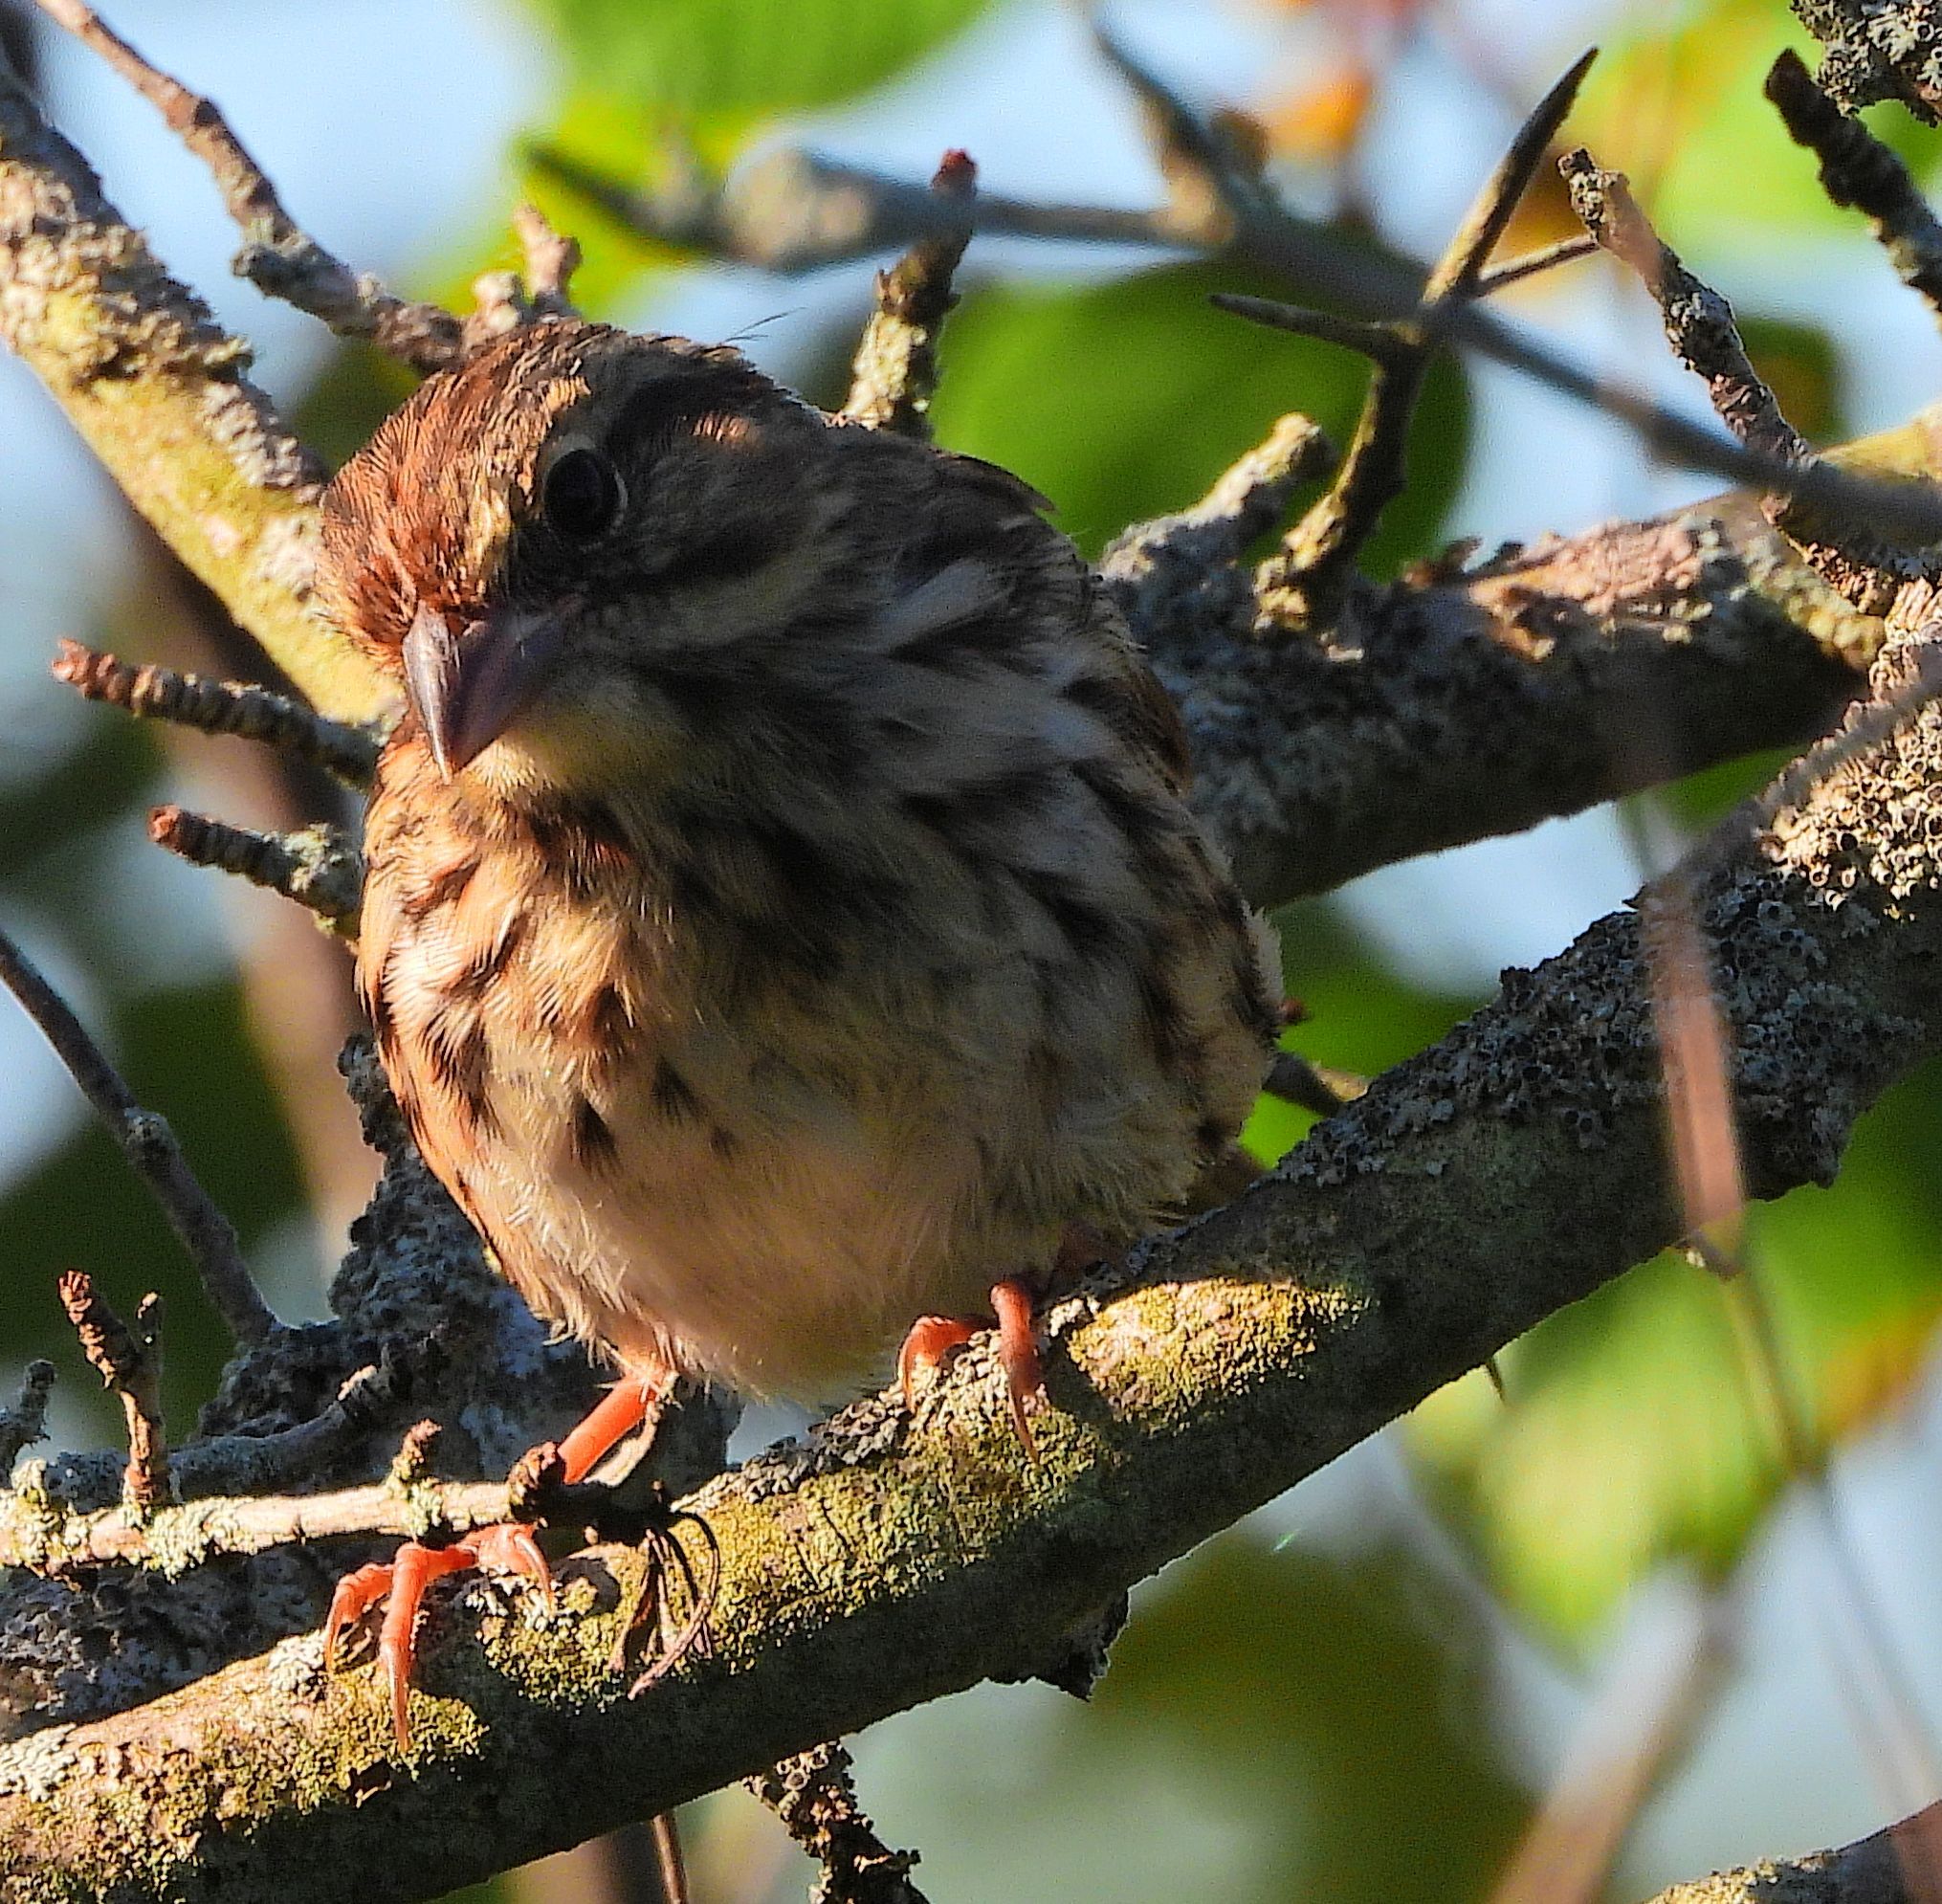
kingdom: Animalia
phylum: Chordata
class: Aves
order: Passeriformes
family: Passerellidae
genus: Melospiza
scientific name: Melospiza melodia
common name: Song sparrow
